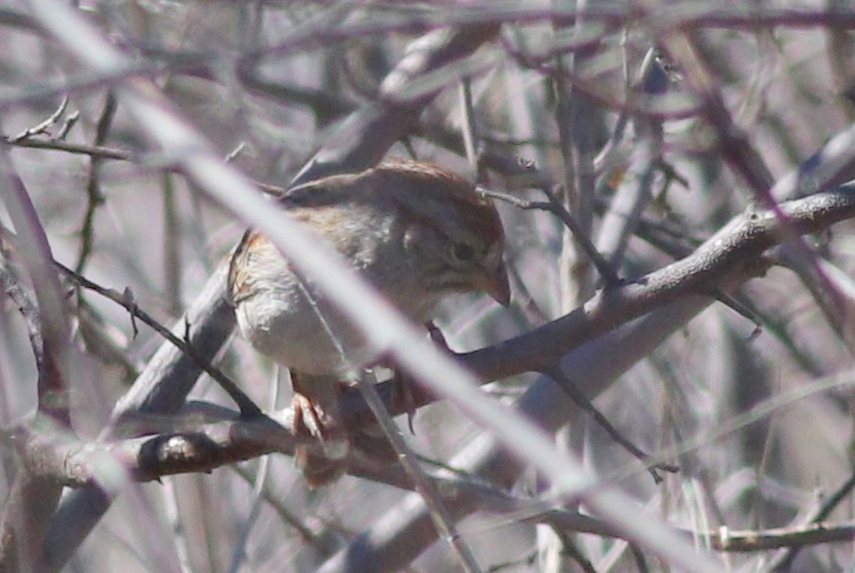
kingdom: Animalia
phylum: Chordata
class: Aves
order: Passeriformes
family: Passerellidae
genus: Peucaea
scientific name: Peucaea carpalis
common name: Rufous-winged sparrow
